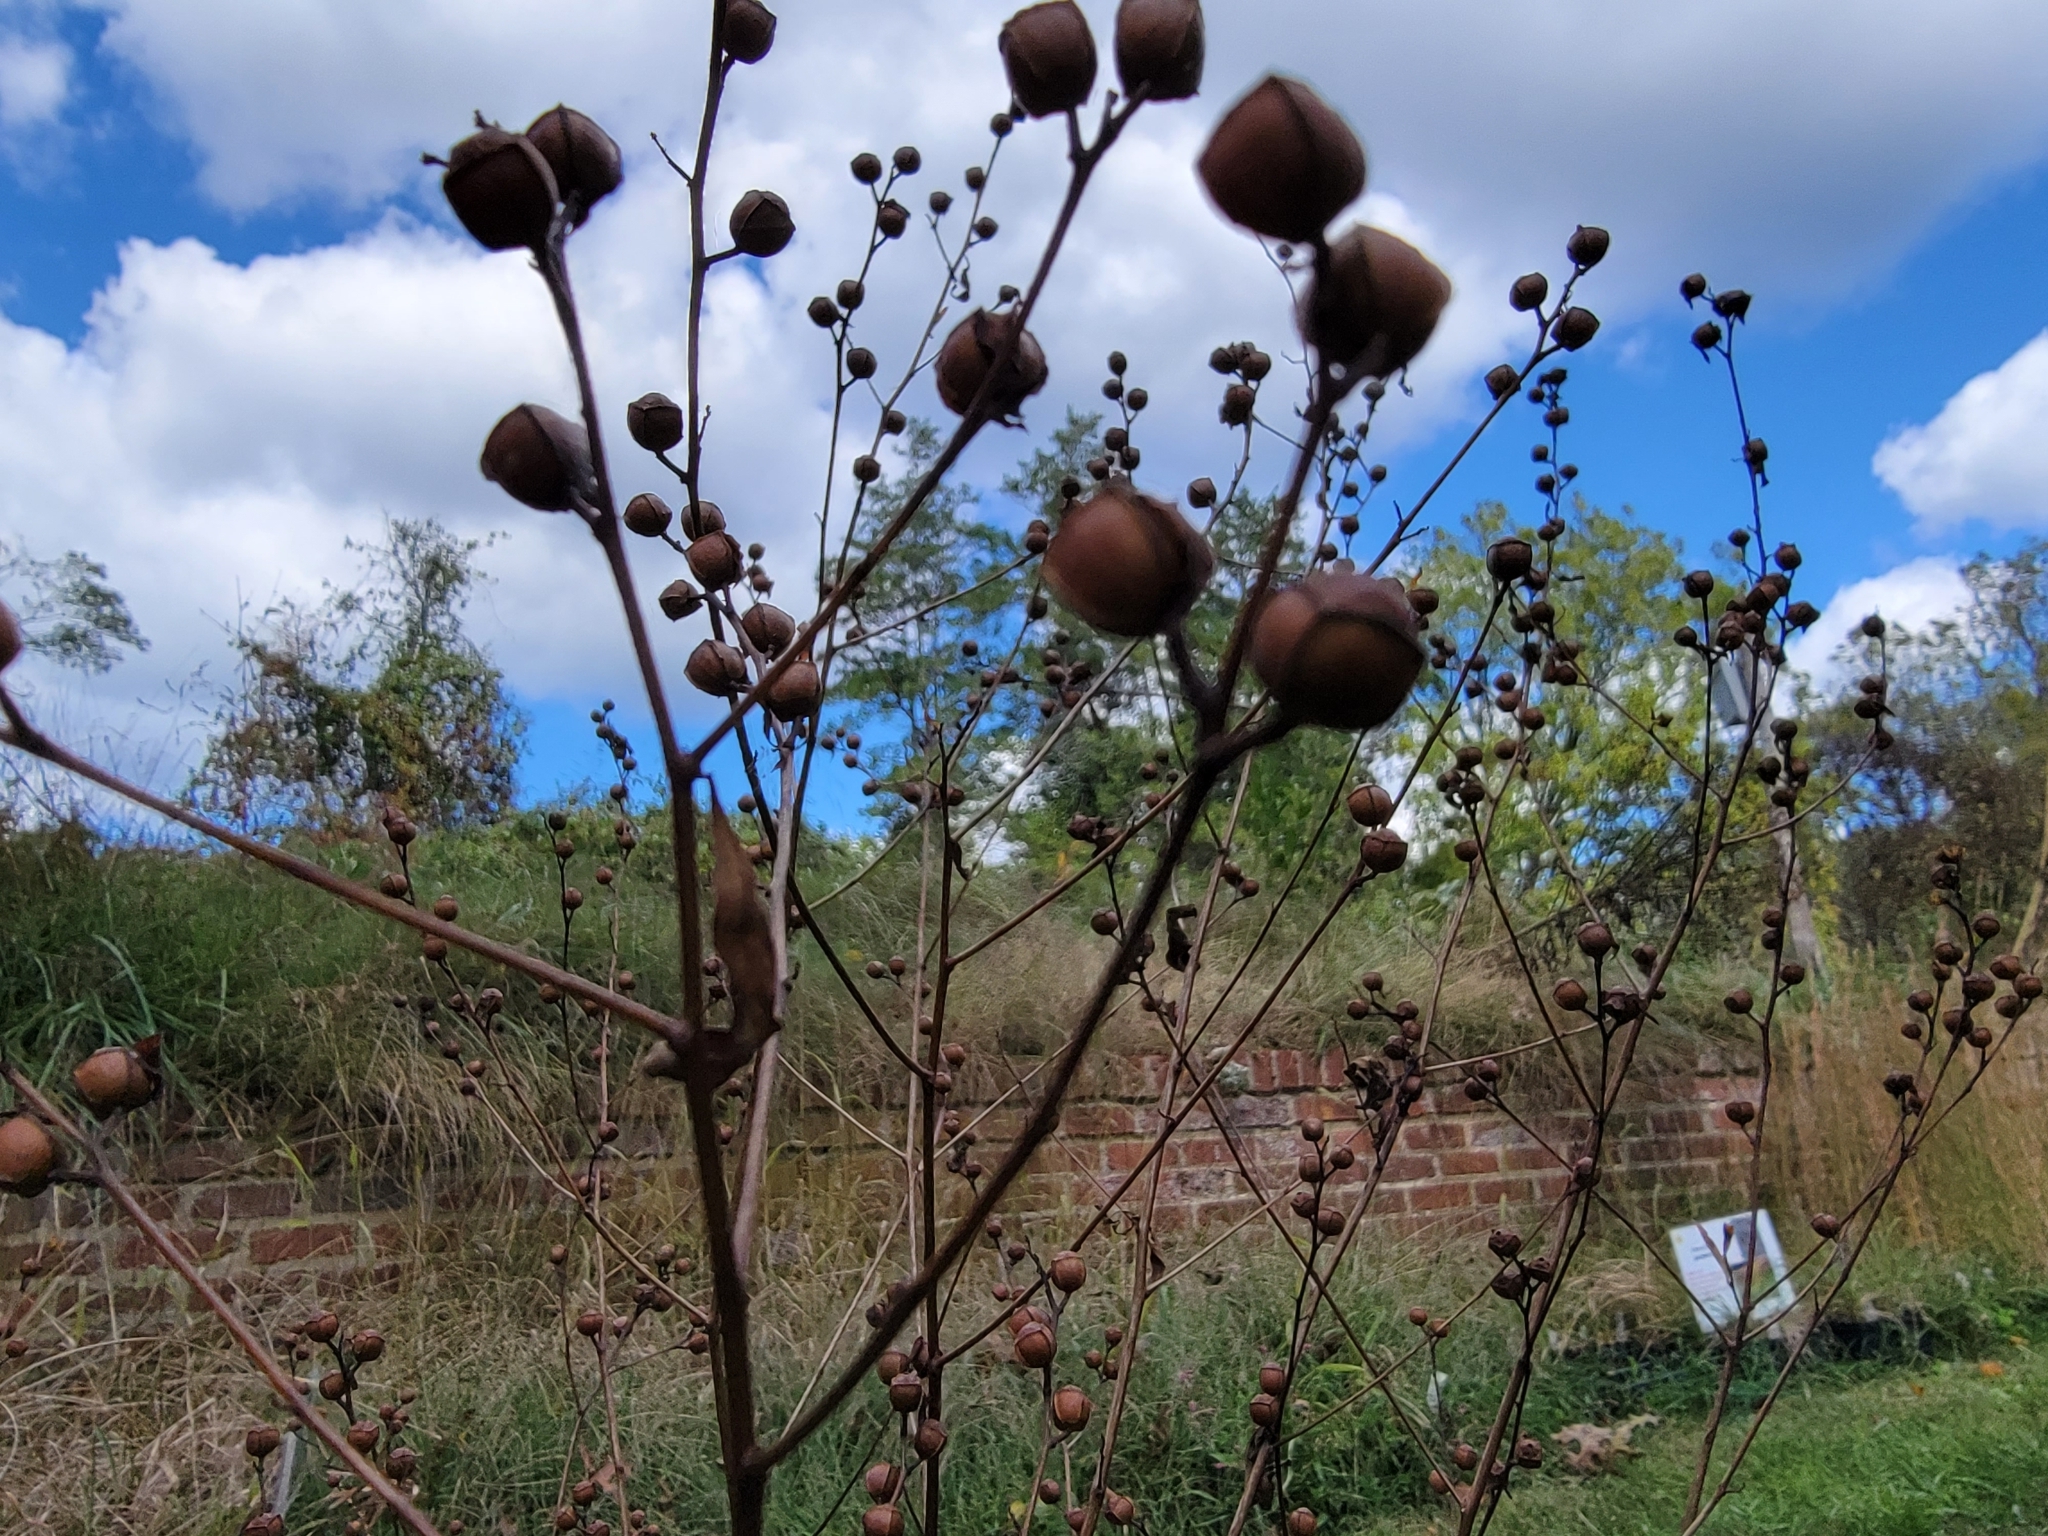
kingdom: Plantae
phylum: Tracheophyta
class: Magnoliopsida
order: Myrtales
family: Onagraceae
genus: Ludwigia
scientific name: Ludwigia alternifolia
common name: Rattlebox
